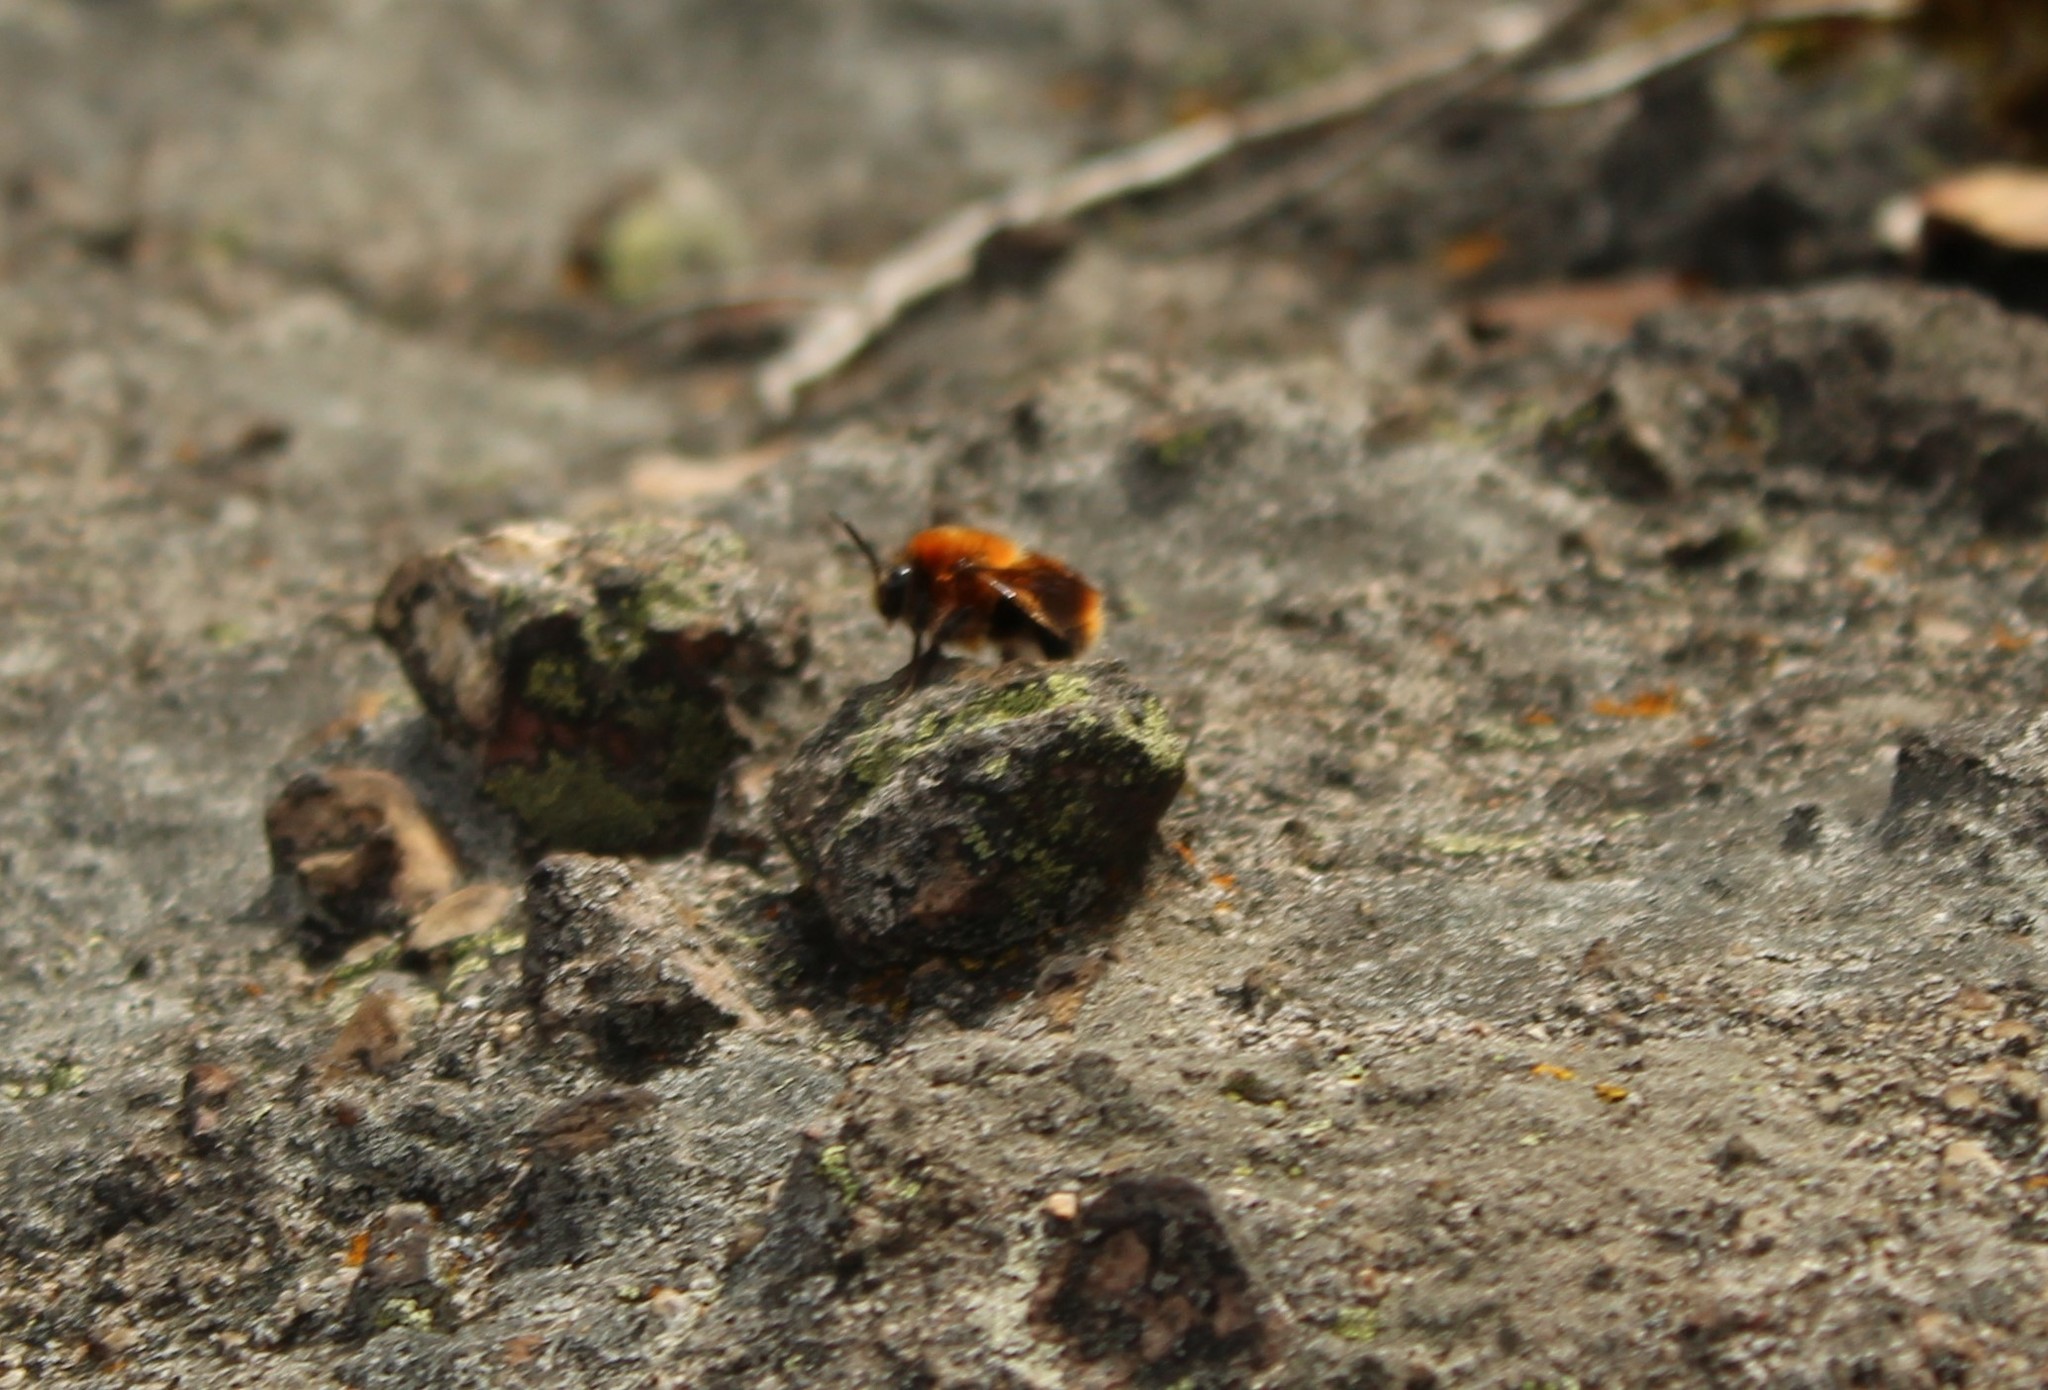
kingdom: Animalia
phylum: Arthropoda
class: Insecta
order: Hymenoptera
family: Apidae
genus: Bombus
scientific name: Bombus rubicundus
